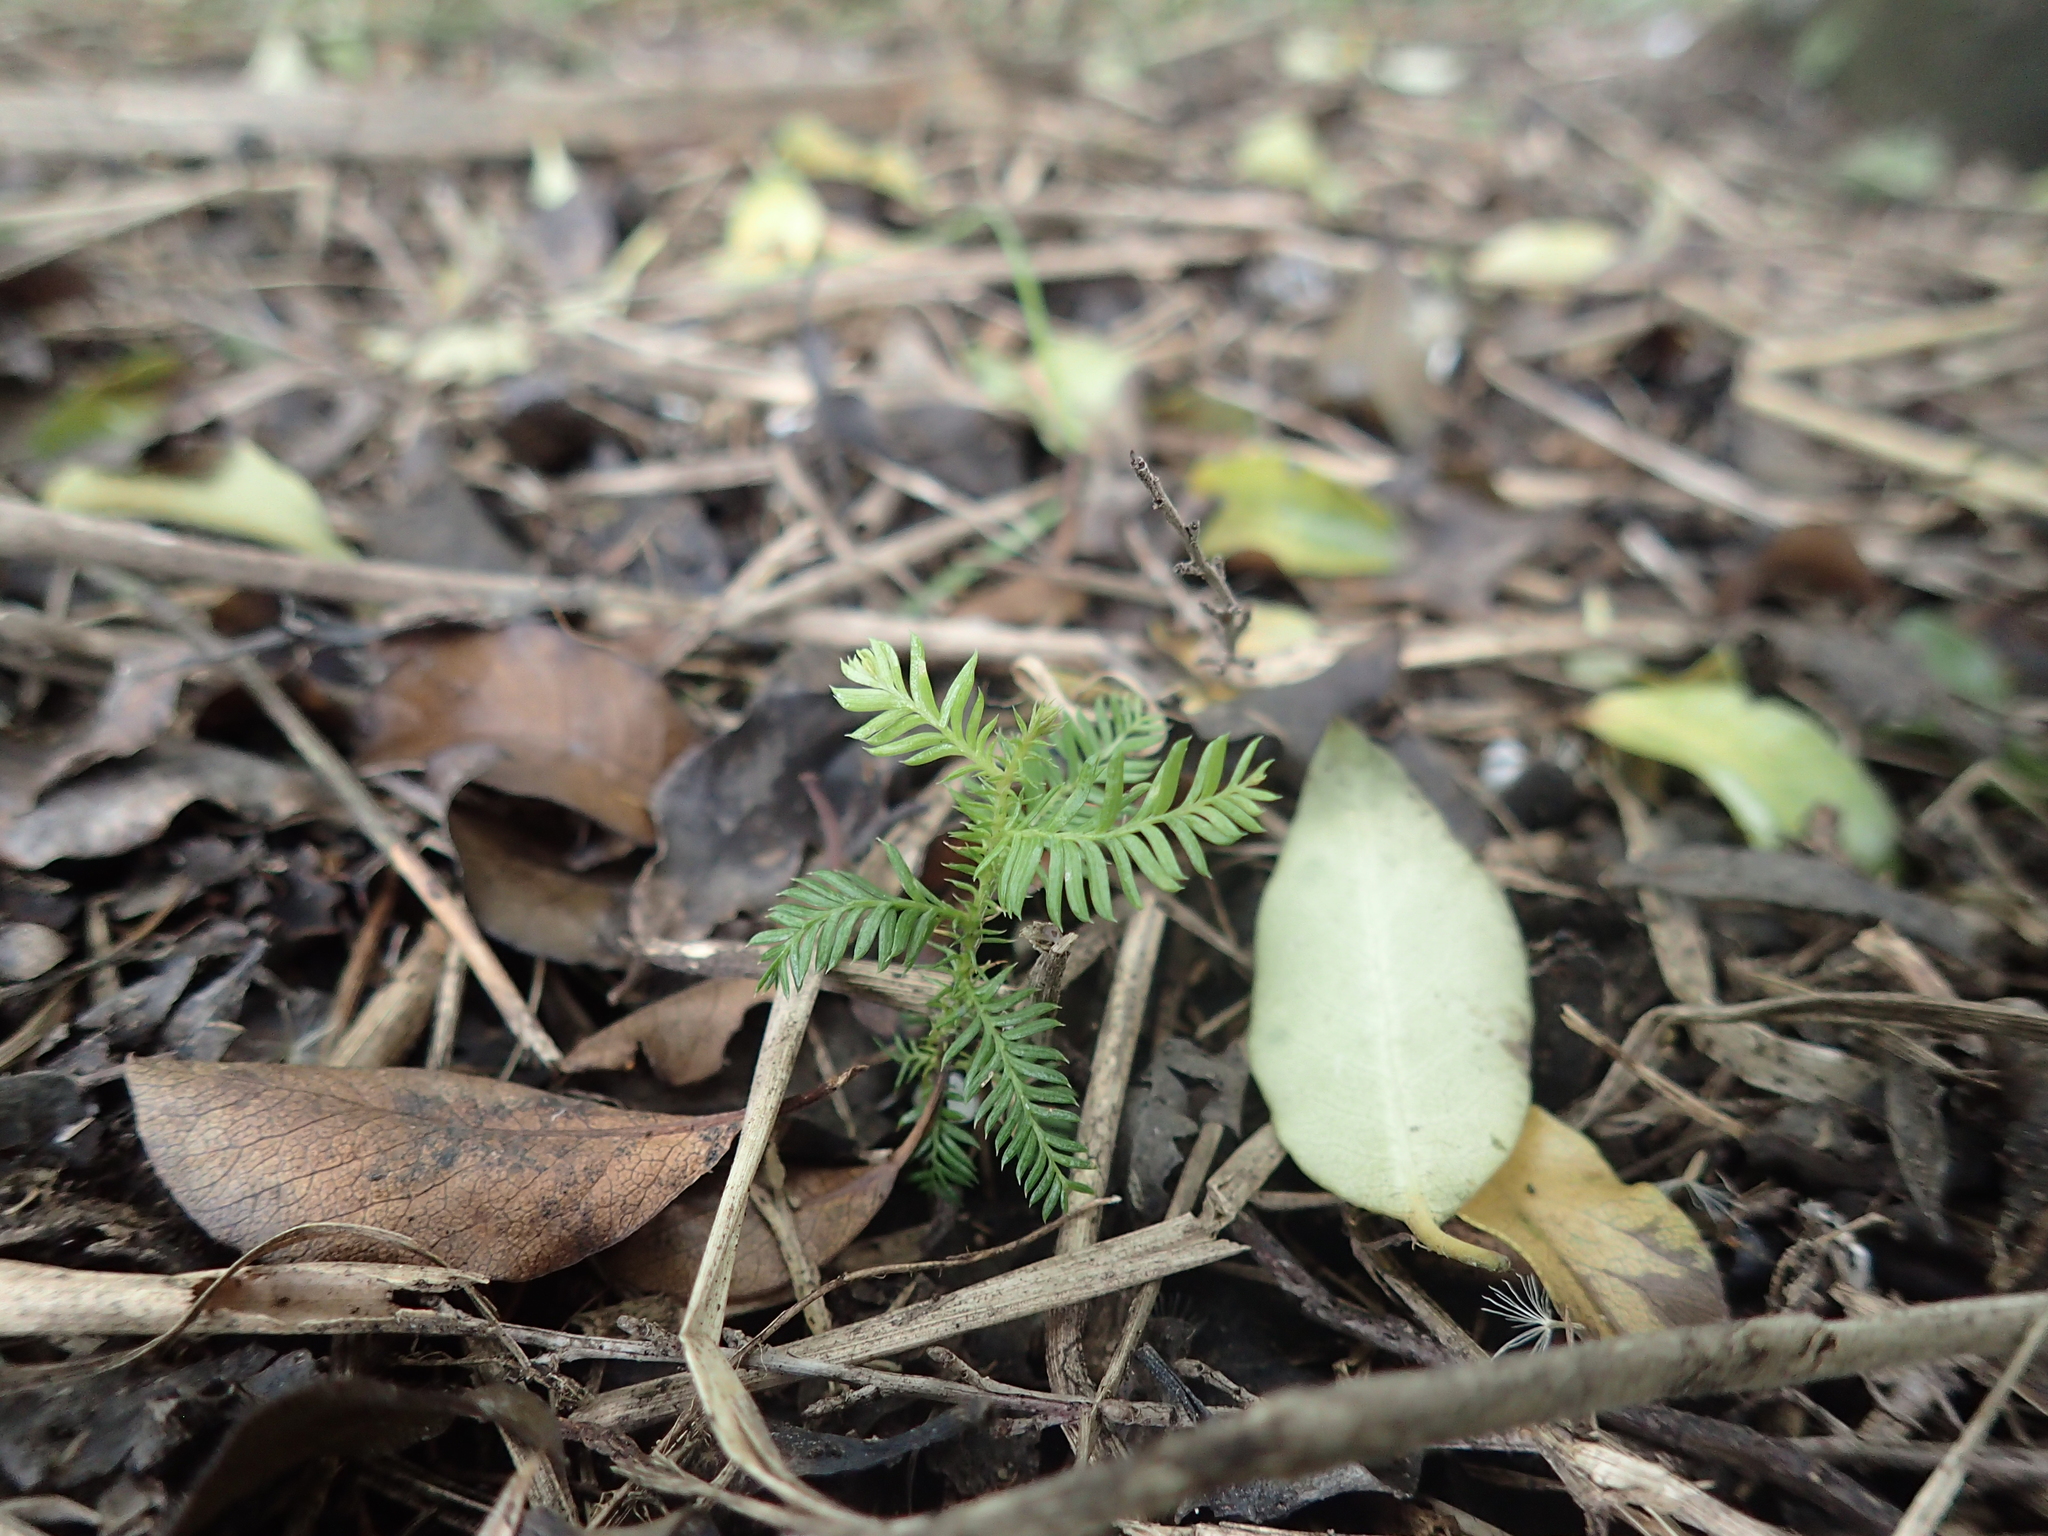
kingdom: Plantae
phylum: Tracheophyta
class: Pinopsida
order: Pinales
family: Podocarpaceae
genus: Dacrycarpus
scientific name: Dacrycarpus dacrydioides
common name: White pine
